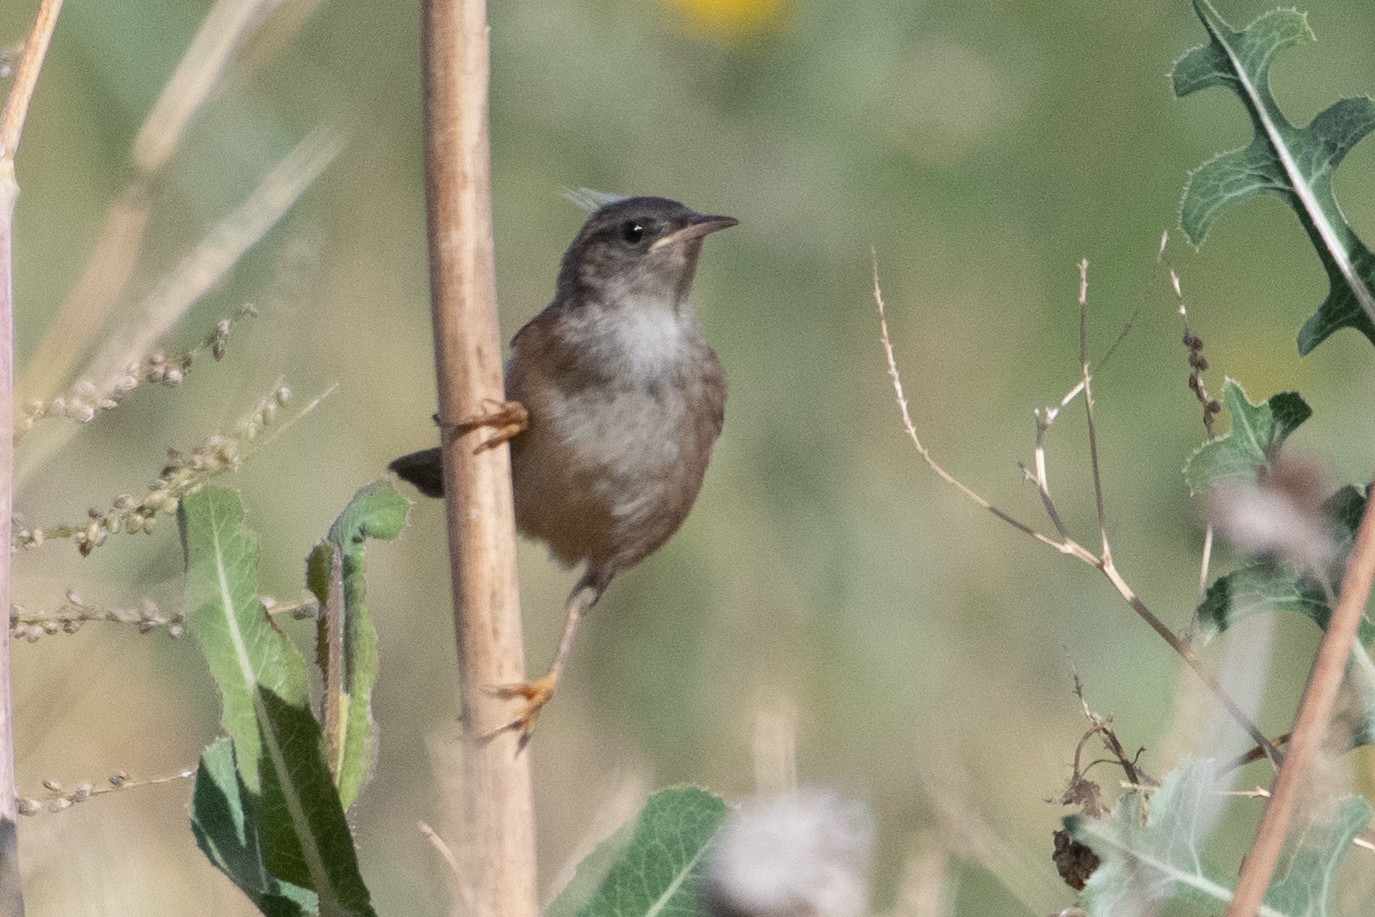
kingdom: Animalia
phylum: Chordata
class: Aves
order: Passeriformes
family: Troglodytidae
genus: Cistothorus
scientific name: Cistothorus palustris
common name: Marsh wren
